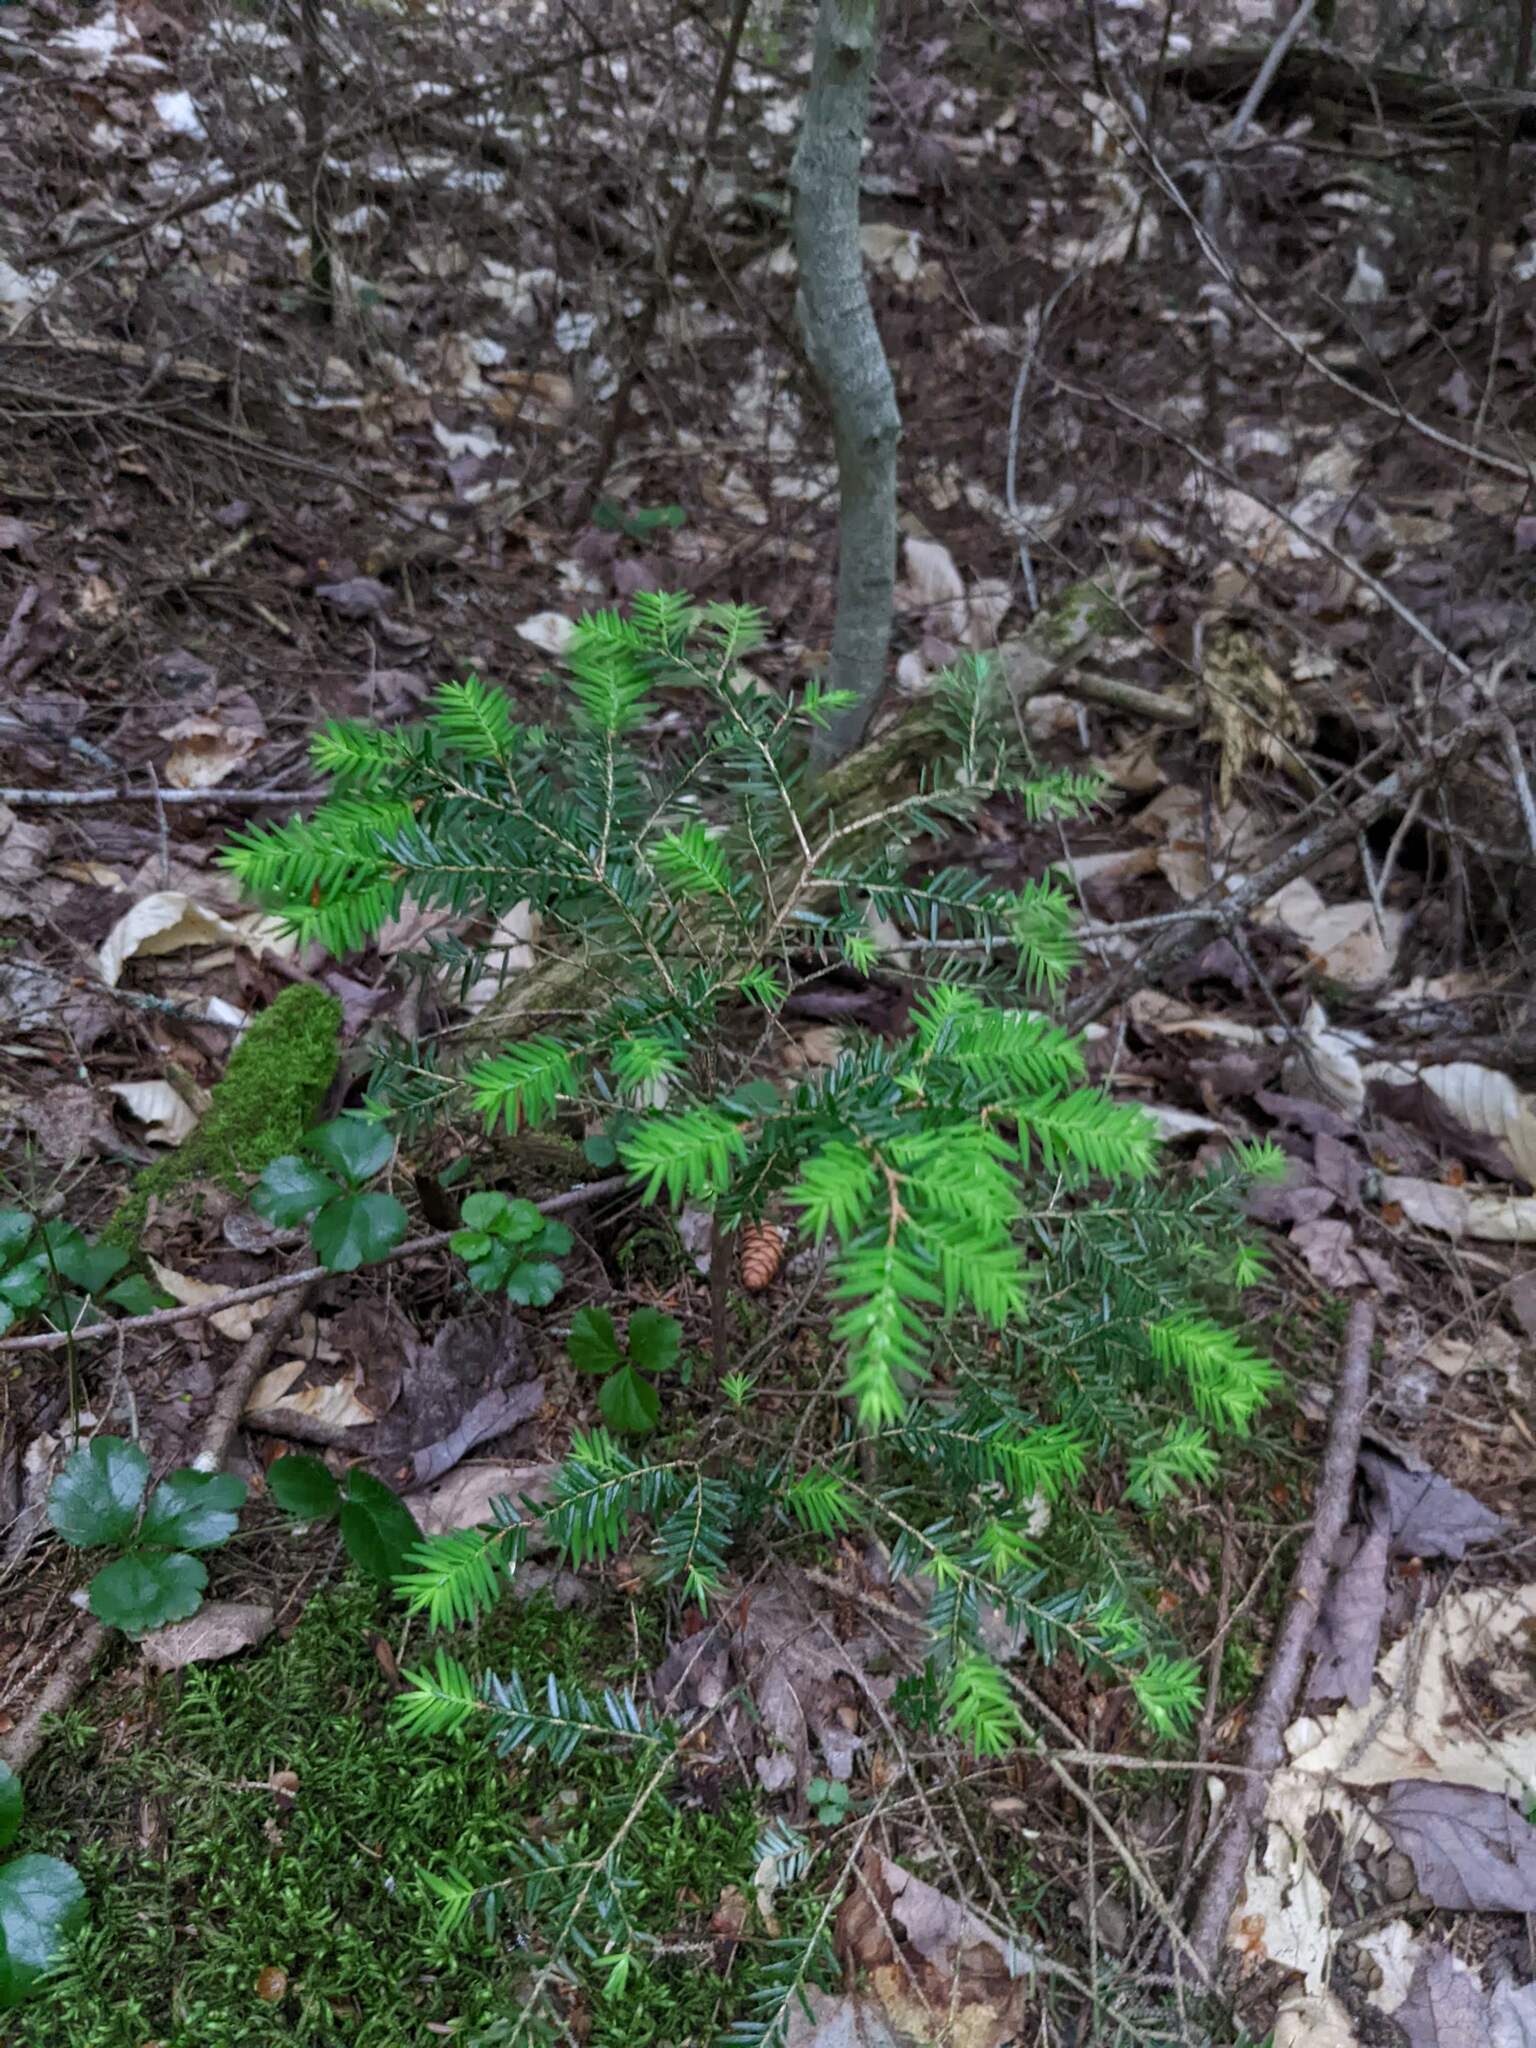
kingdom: Plantae
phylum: Tracheophyta
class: Pinopsida
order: Pinales
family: Pinaceae
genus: Tsuga
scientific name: Tsuga canadensis
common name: Eastern hemlock
